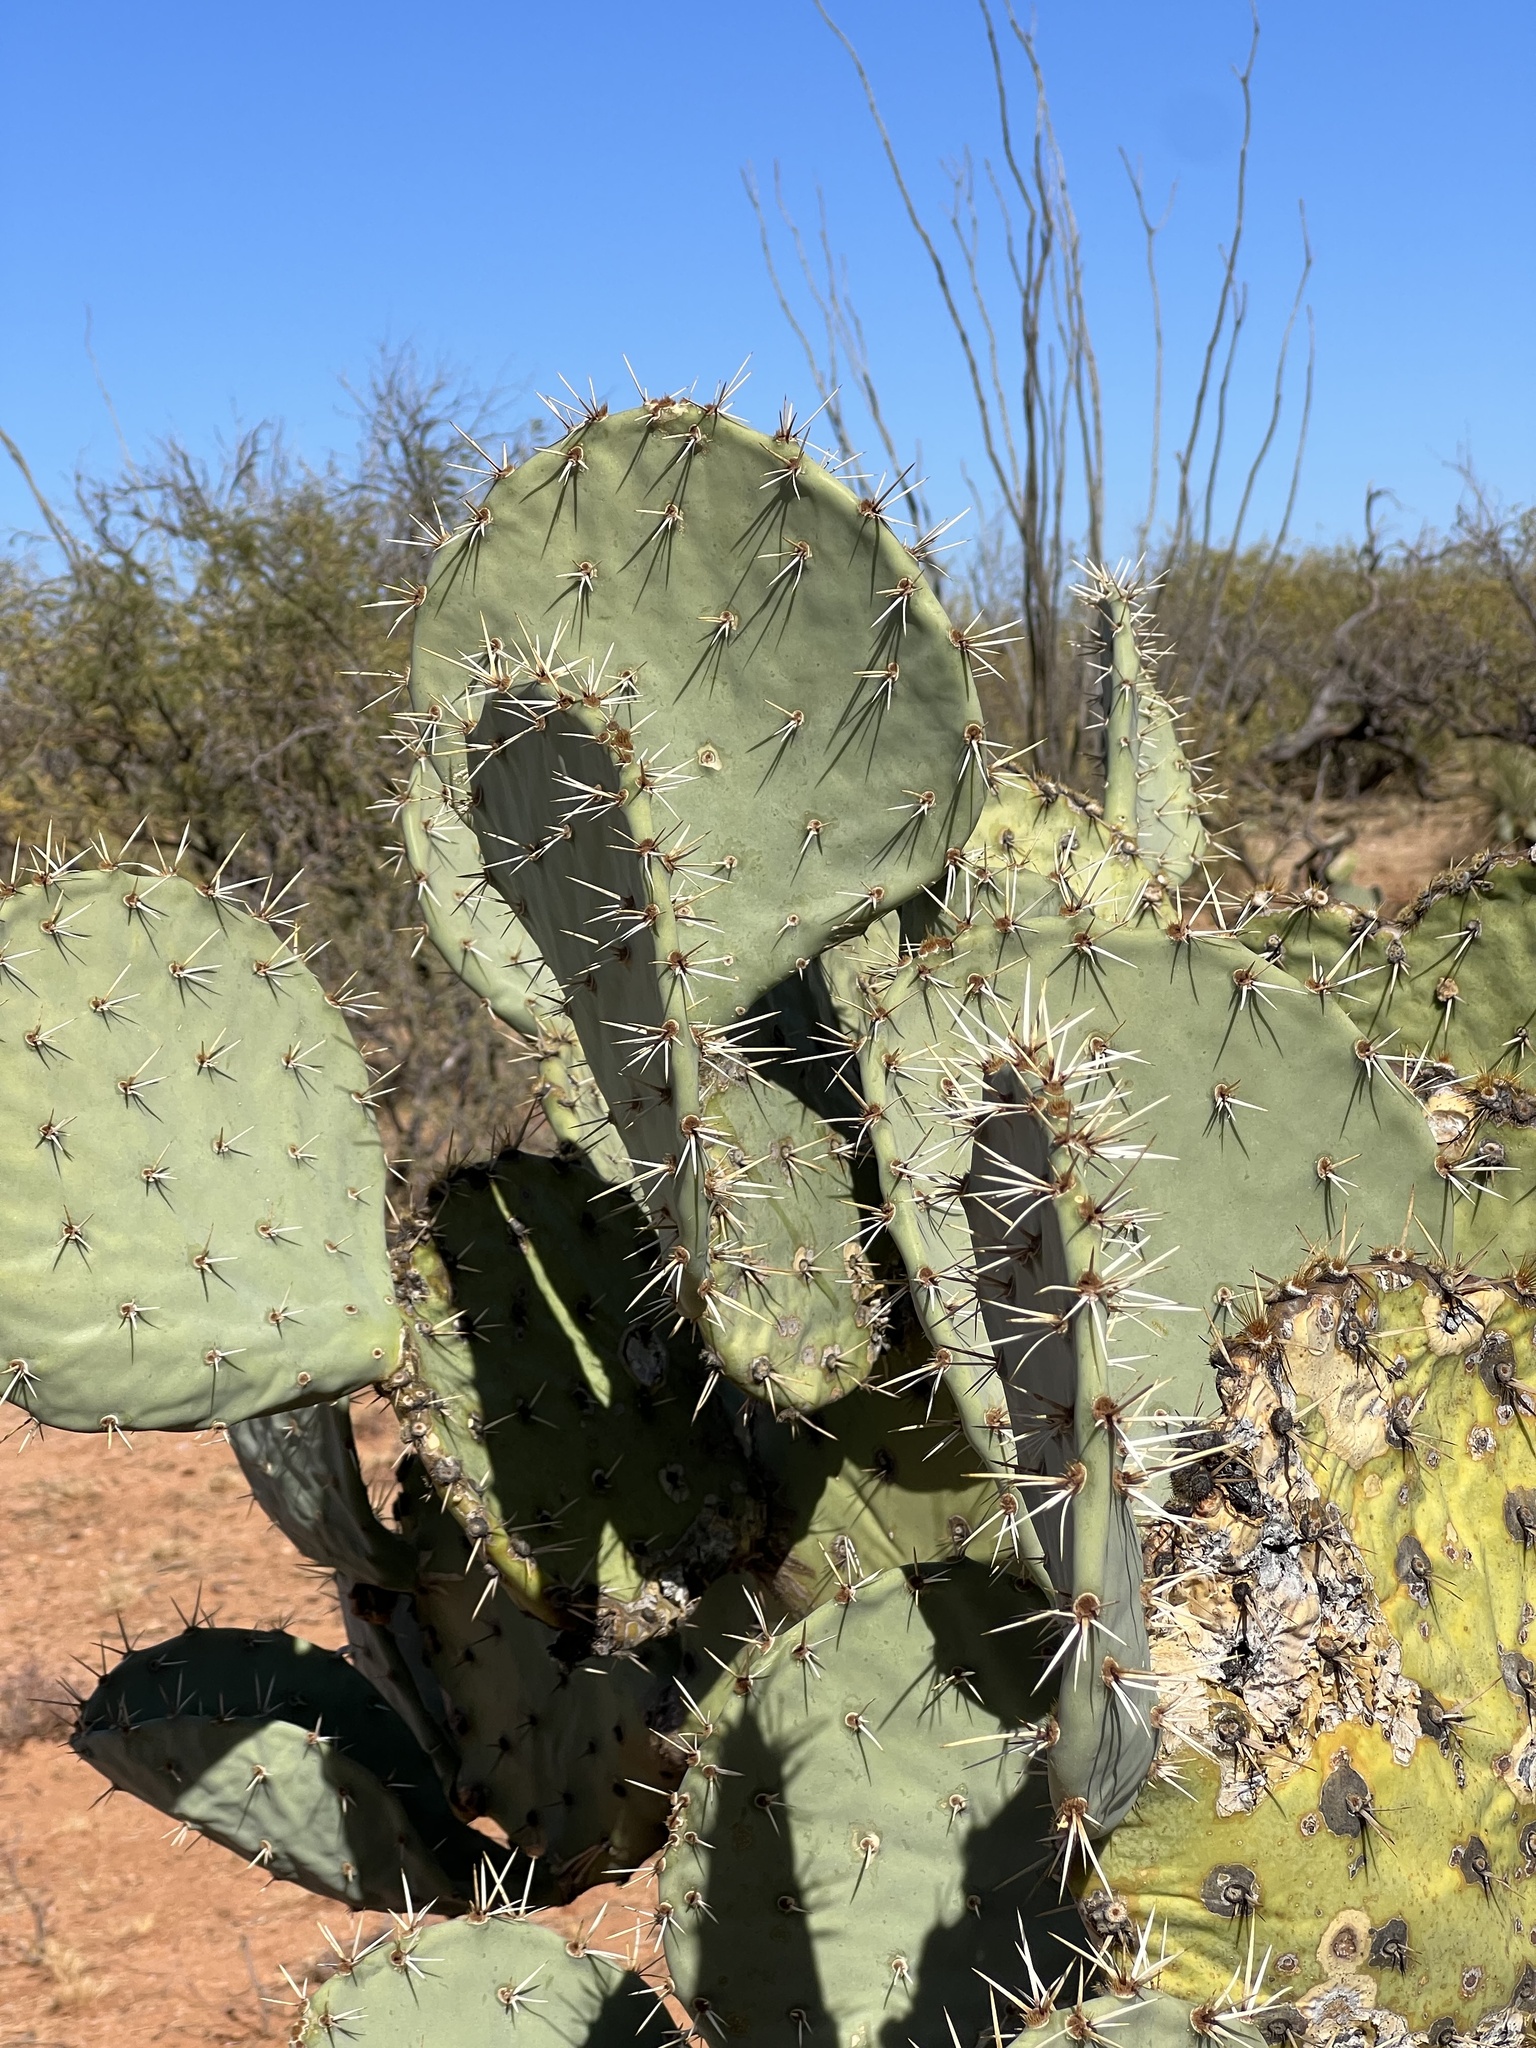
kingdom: Plantae
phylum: Tracheophyta
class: Magnoliopsida
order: Caryophyllales
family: Cactaceae
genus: Opuntia
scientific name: Opuntia engelmannii
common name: Cactus-apple
